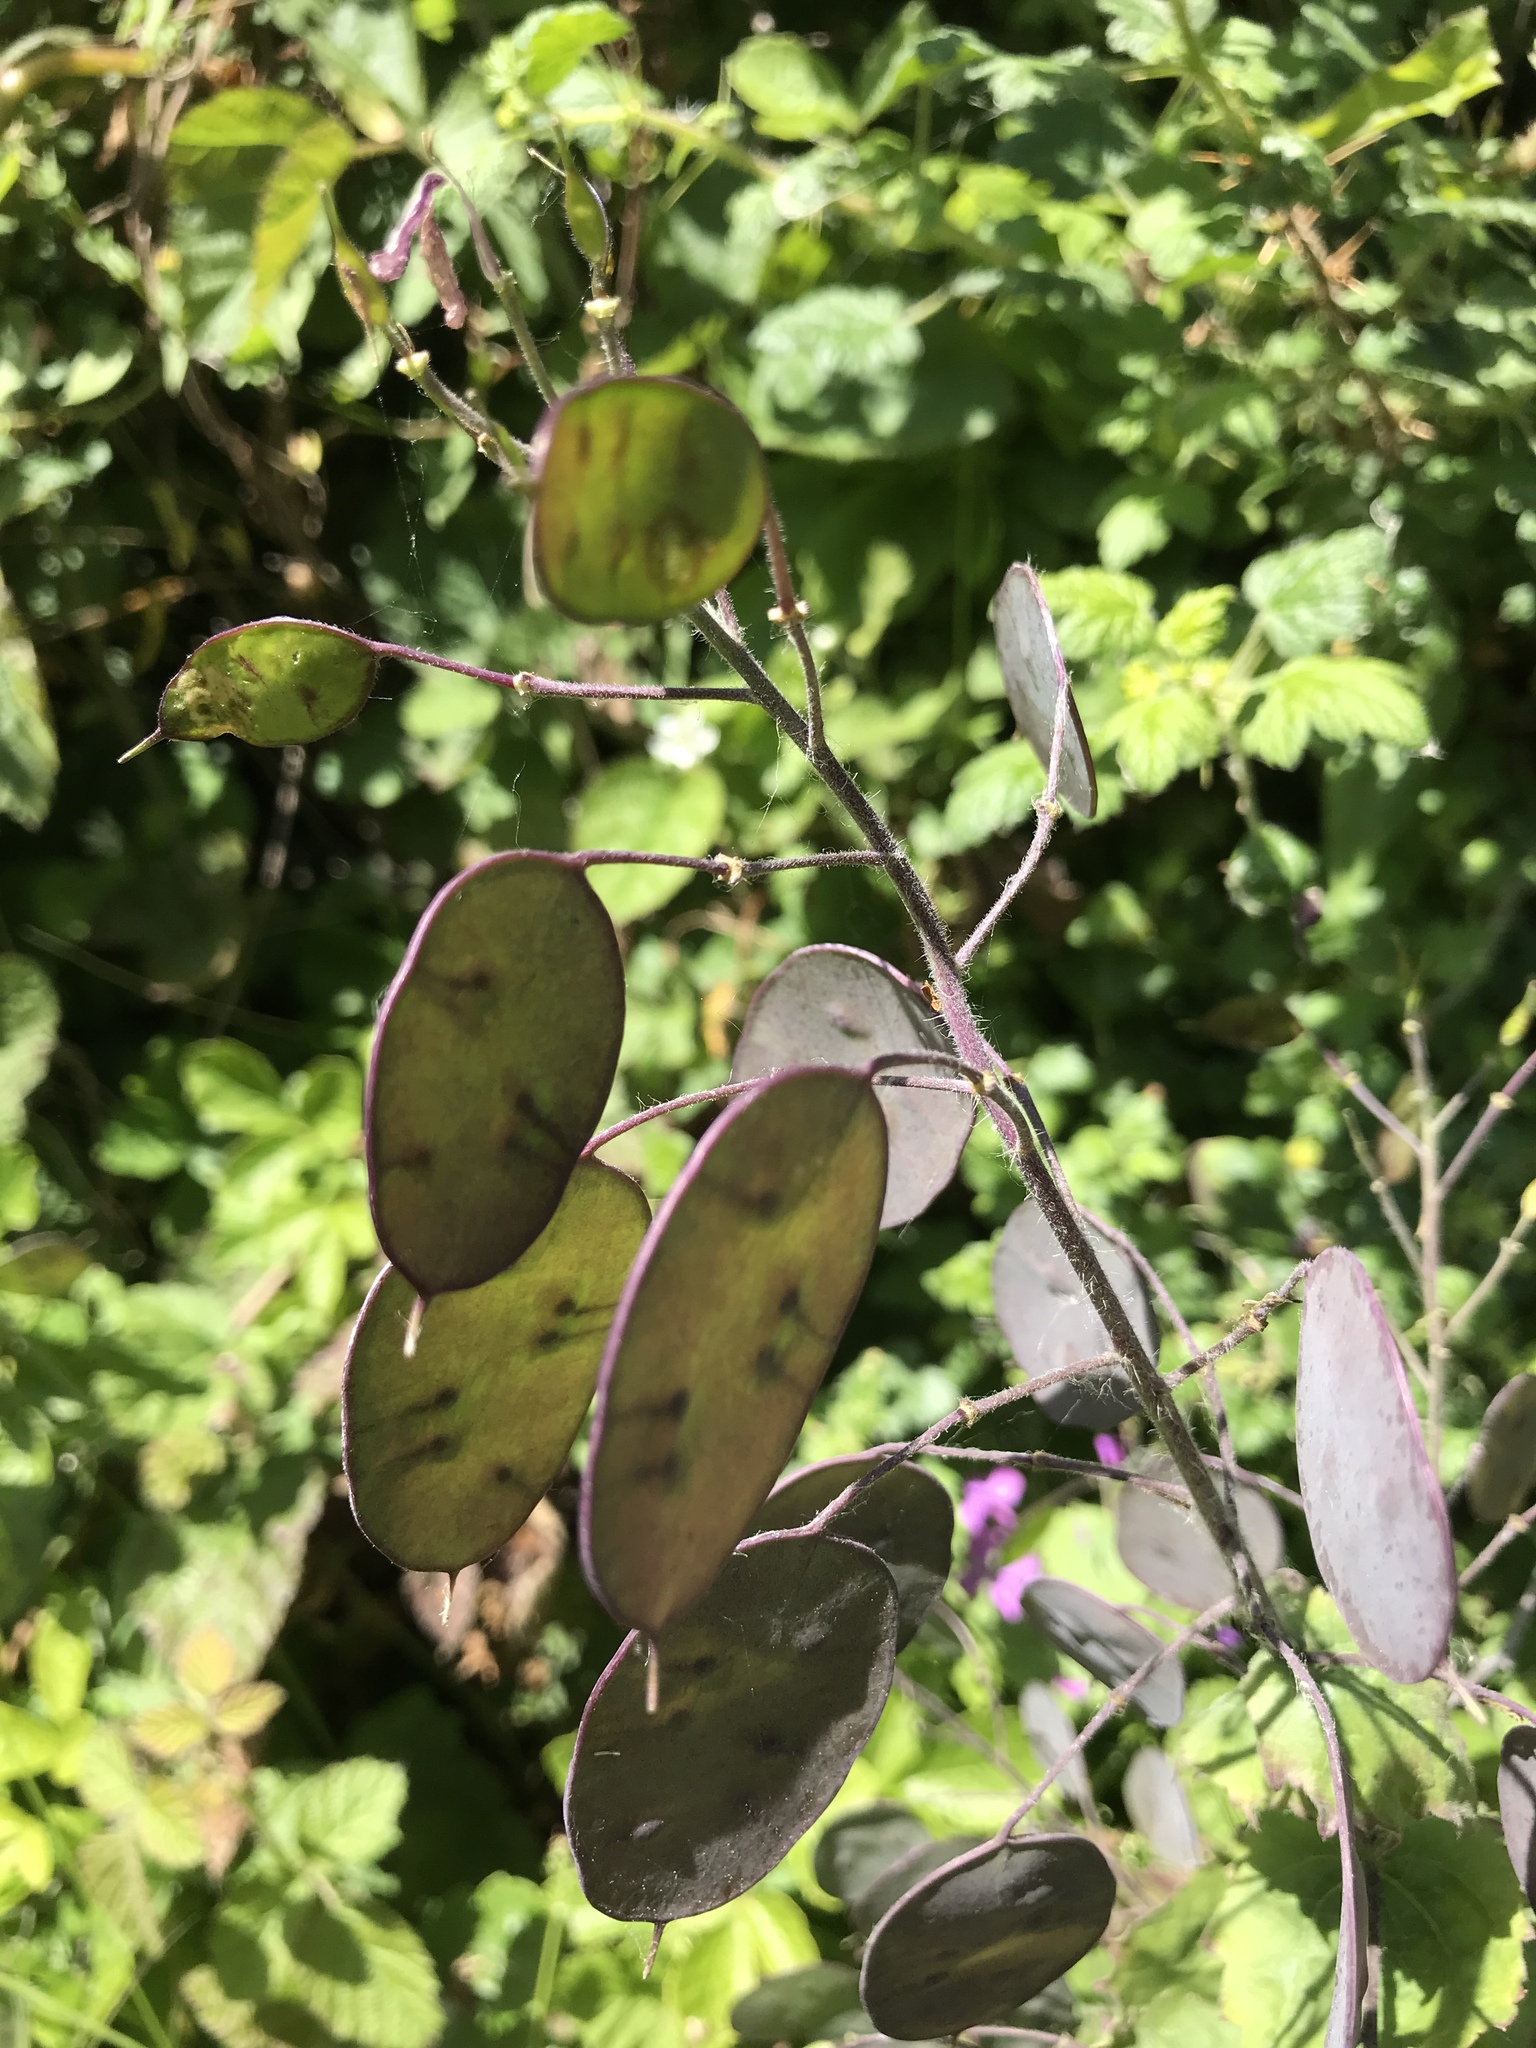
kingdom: Plantae
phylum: Tracheophyta
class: Magnoliopsida
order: Brassicales
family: Brassicaceae
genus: Lunaria
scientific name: Lunaria annua
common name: Honesty
